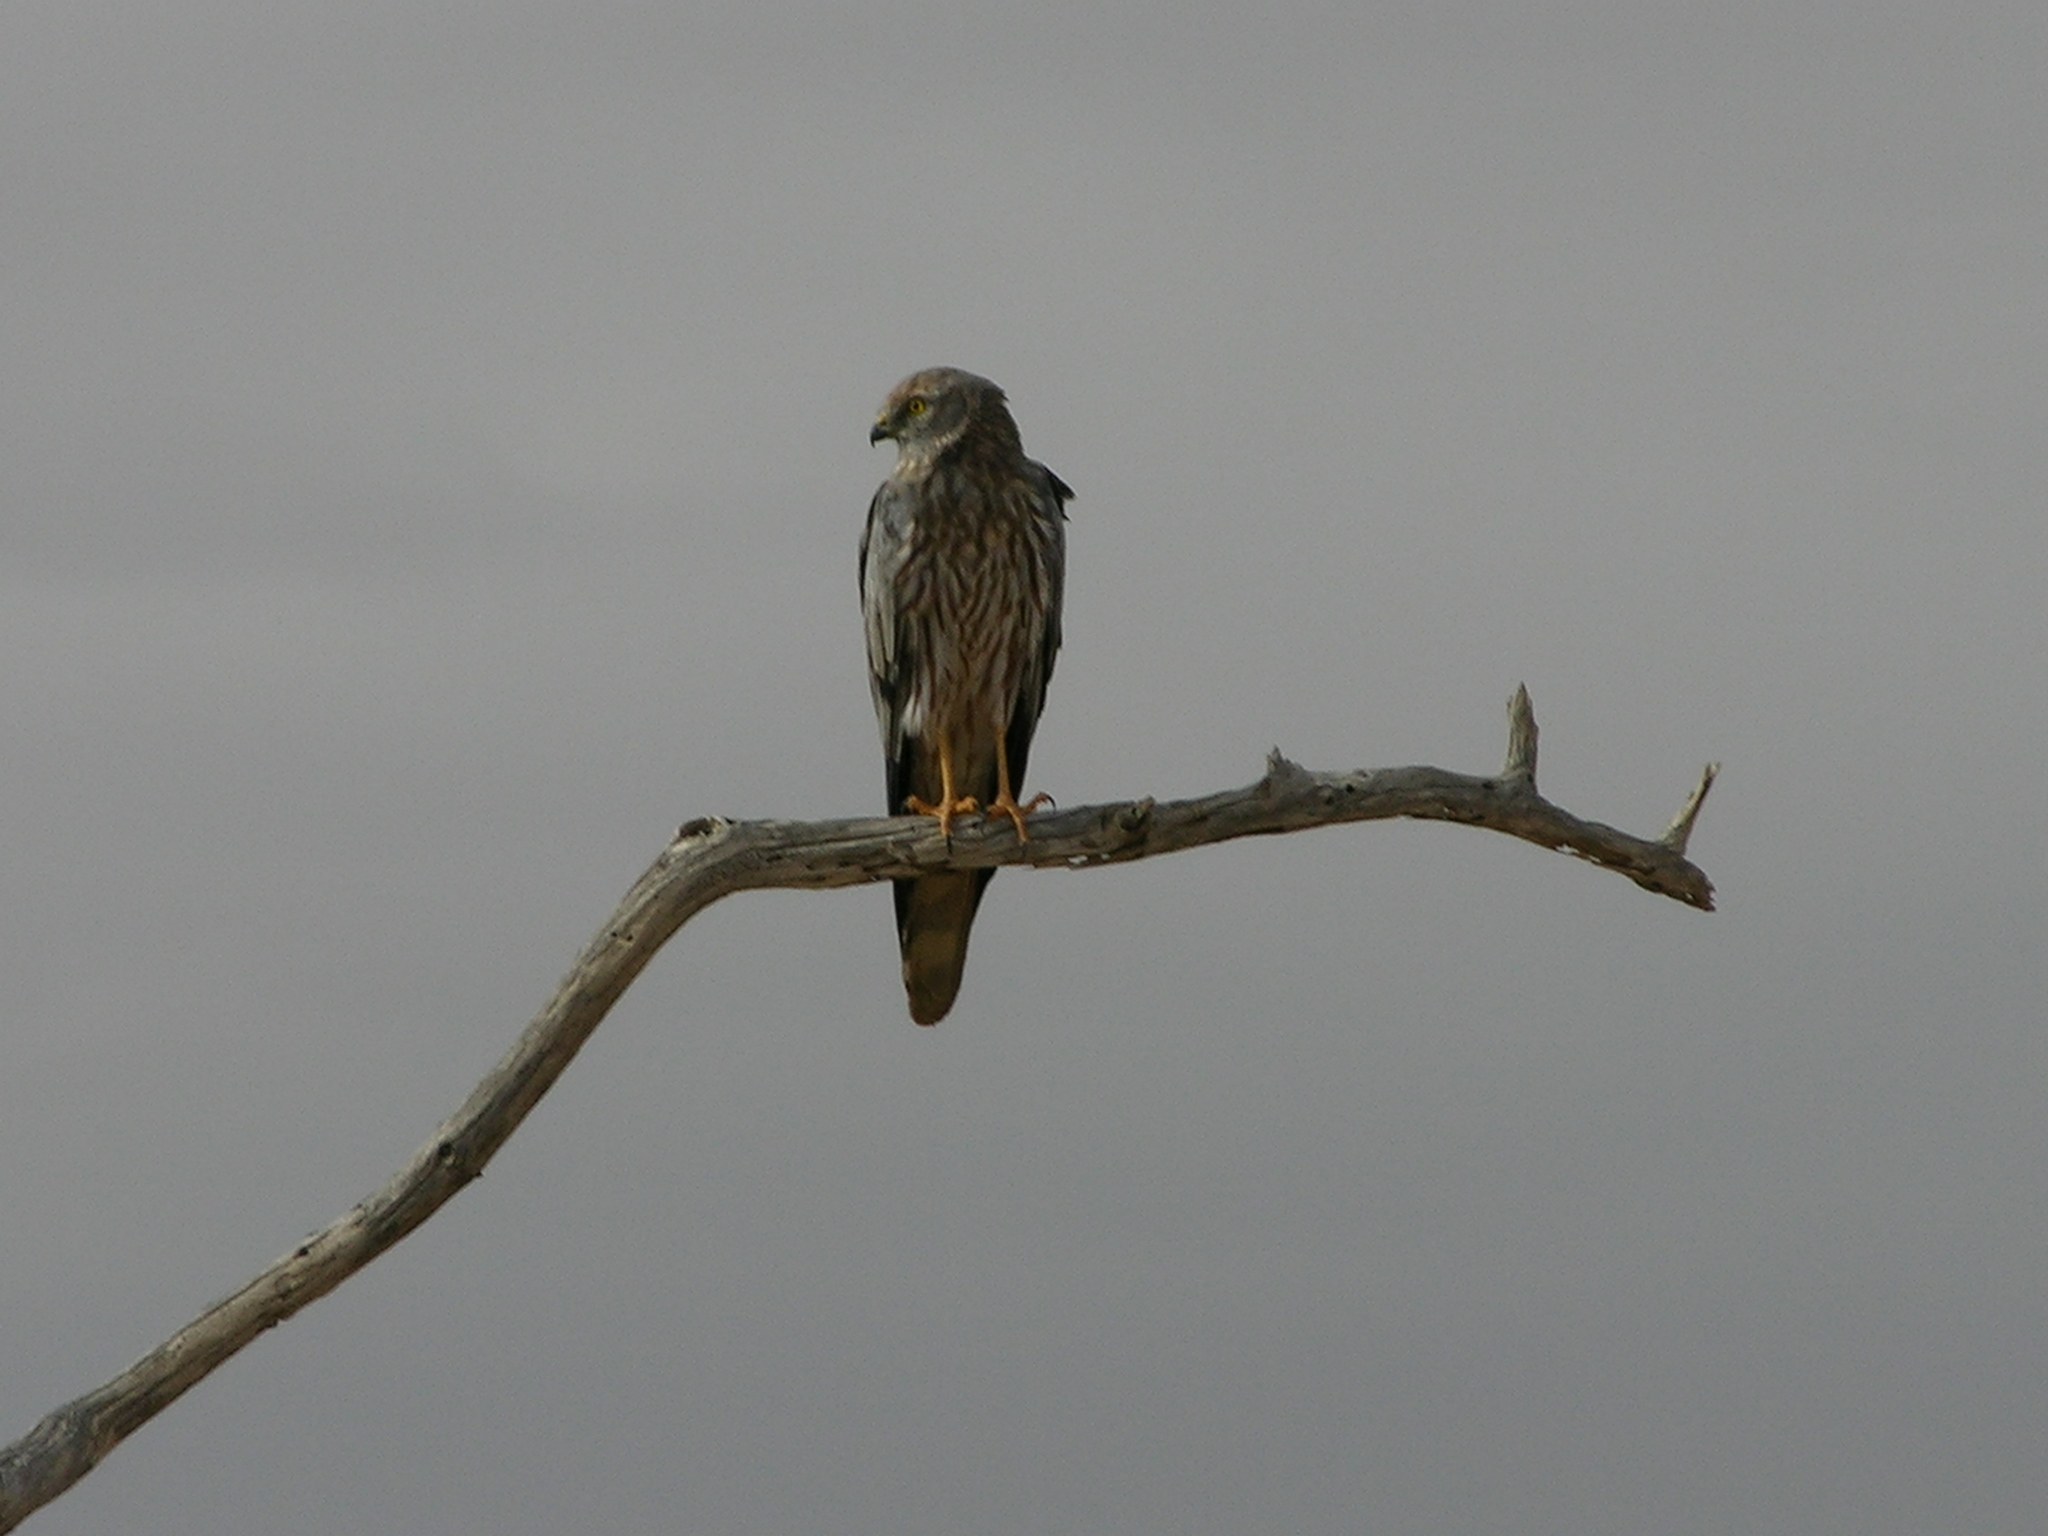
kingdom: Animalia
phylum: Chordata
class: Aves
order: Accipitriformes
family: Accipitridae
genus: Circus
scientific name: Circus pygargus
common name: Montagu's harrier
